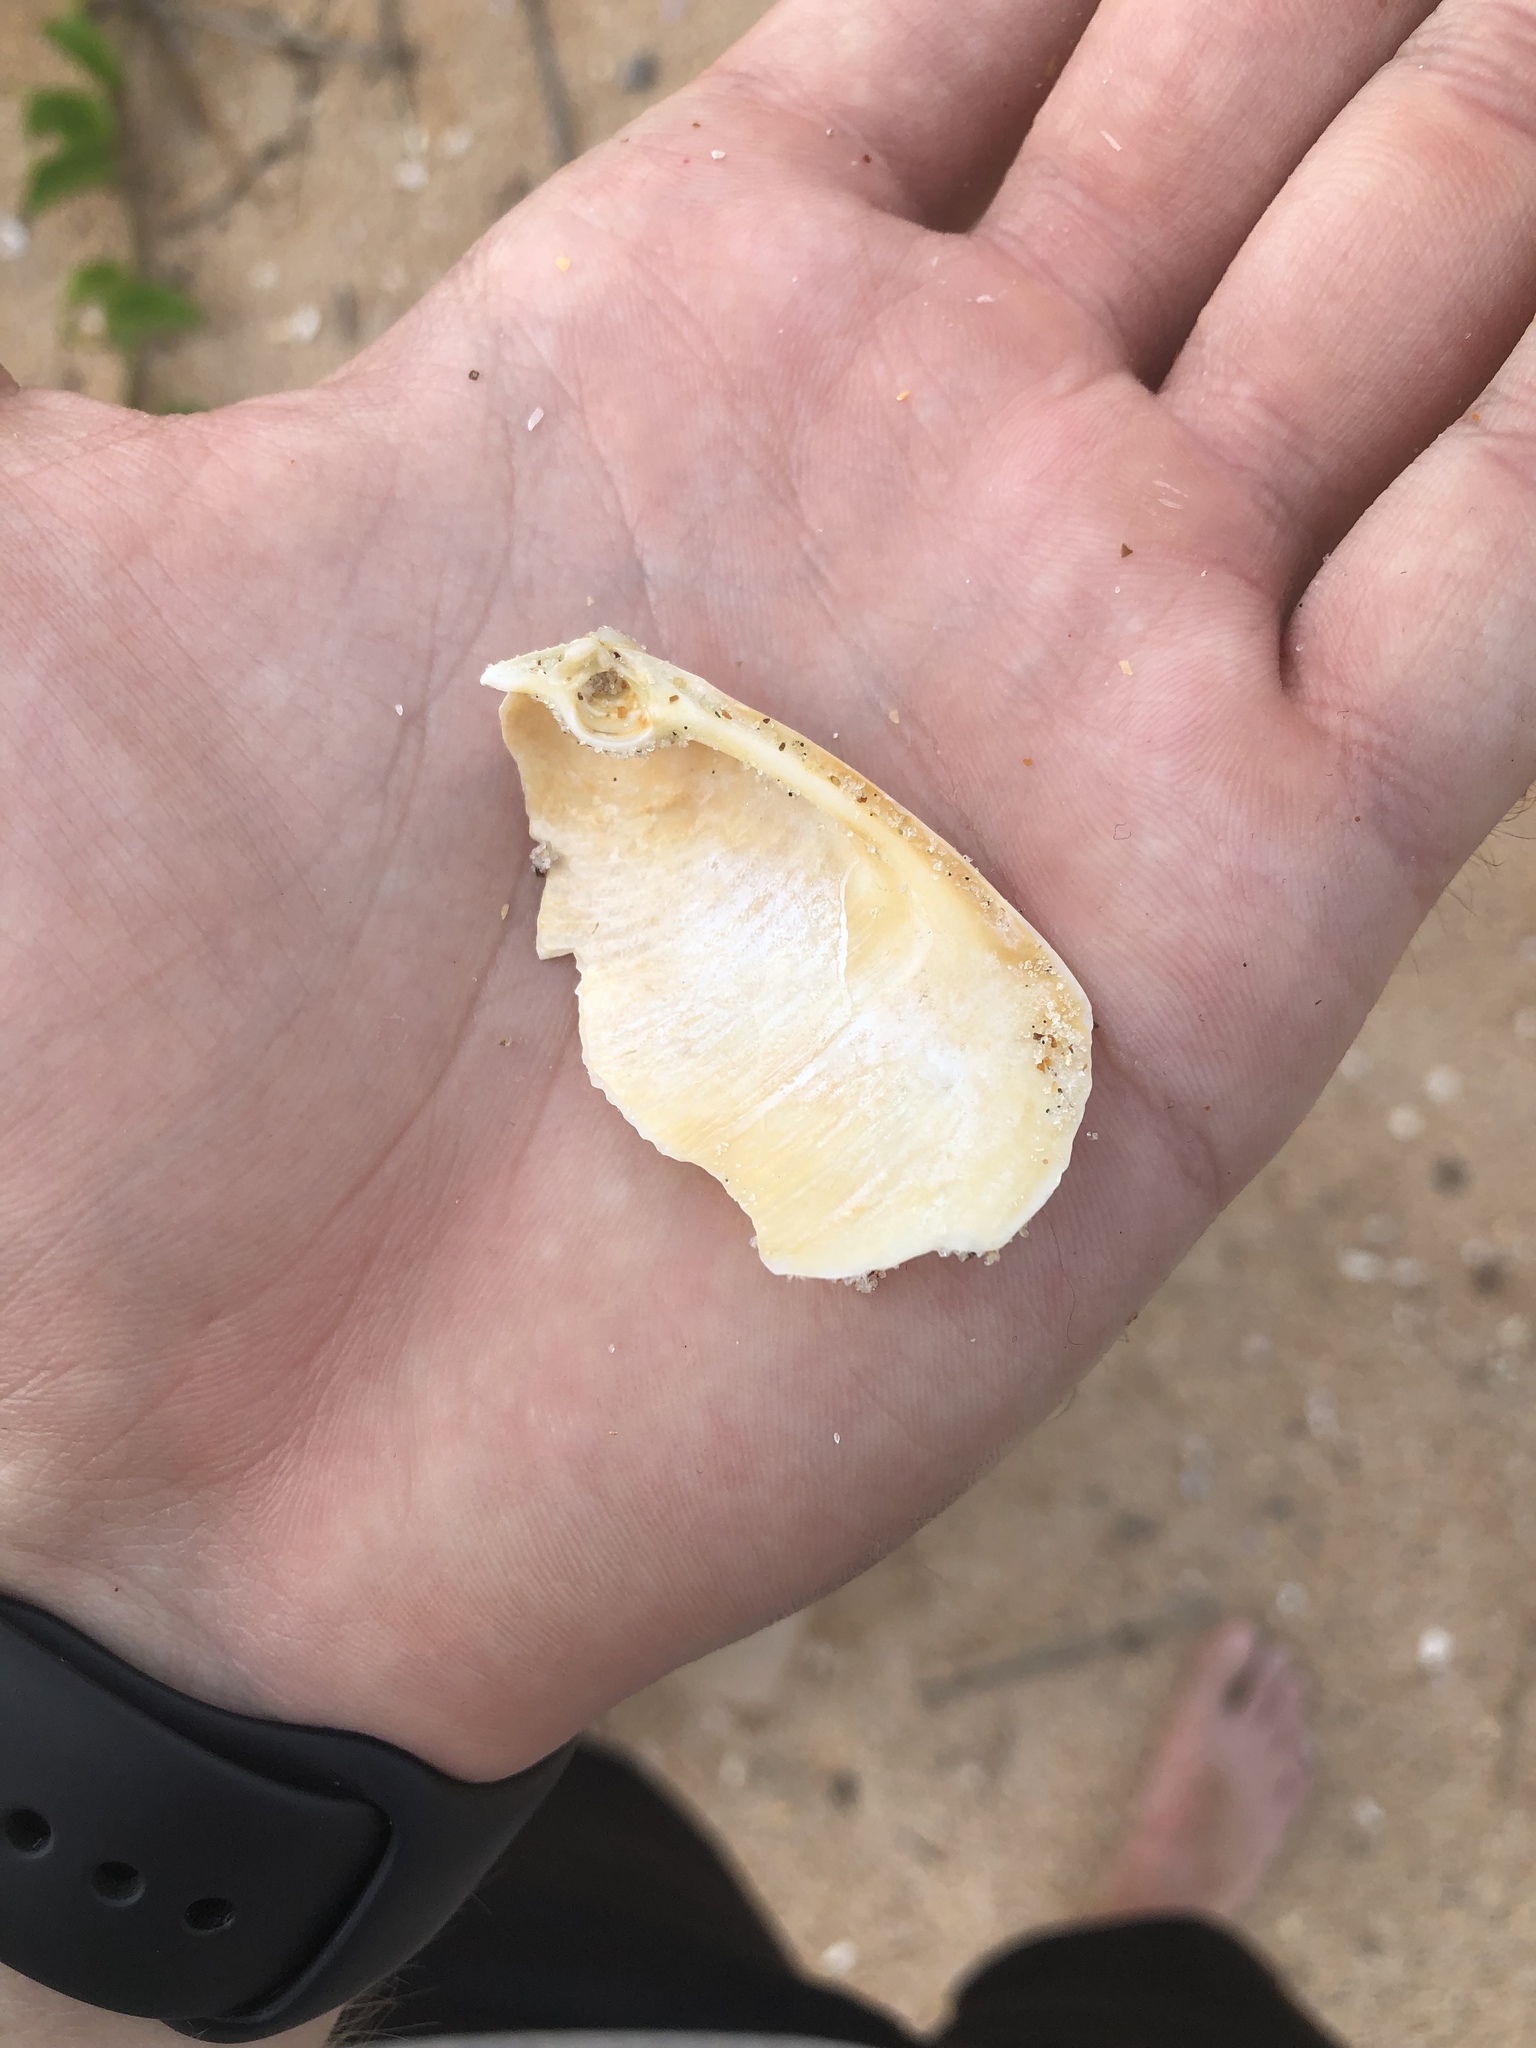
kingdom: Animalia
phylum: Mollusca
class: Bivalvia
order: Venerida
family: Anatinellidae
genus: Raeta
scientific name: Raeta plicatella
